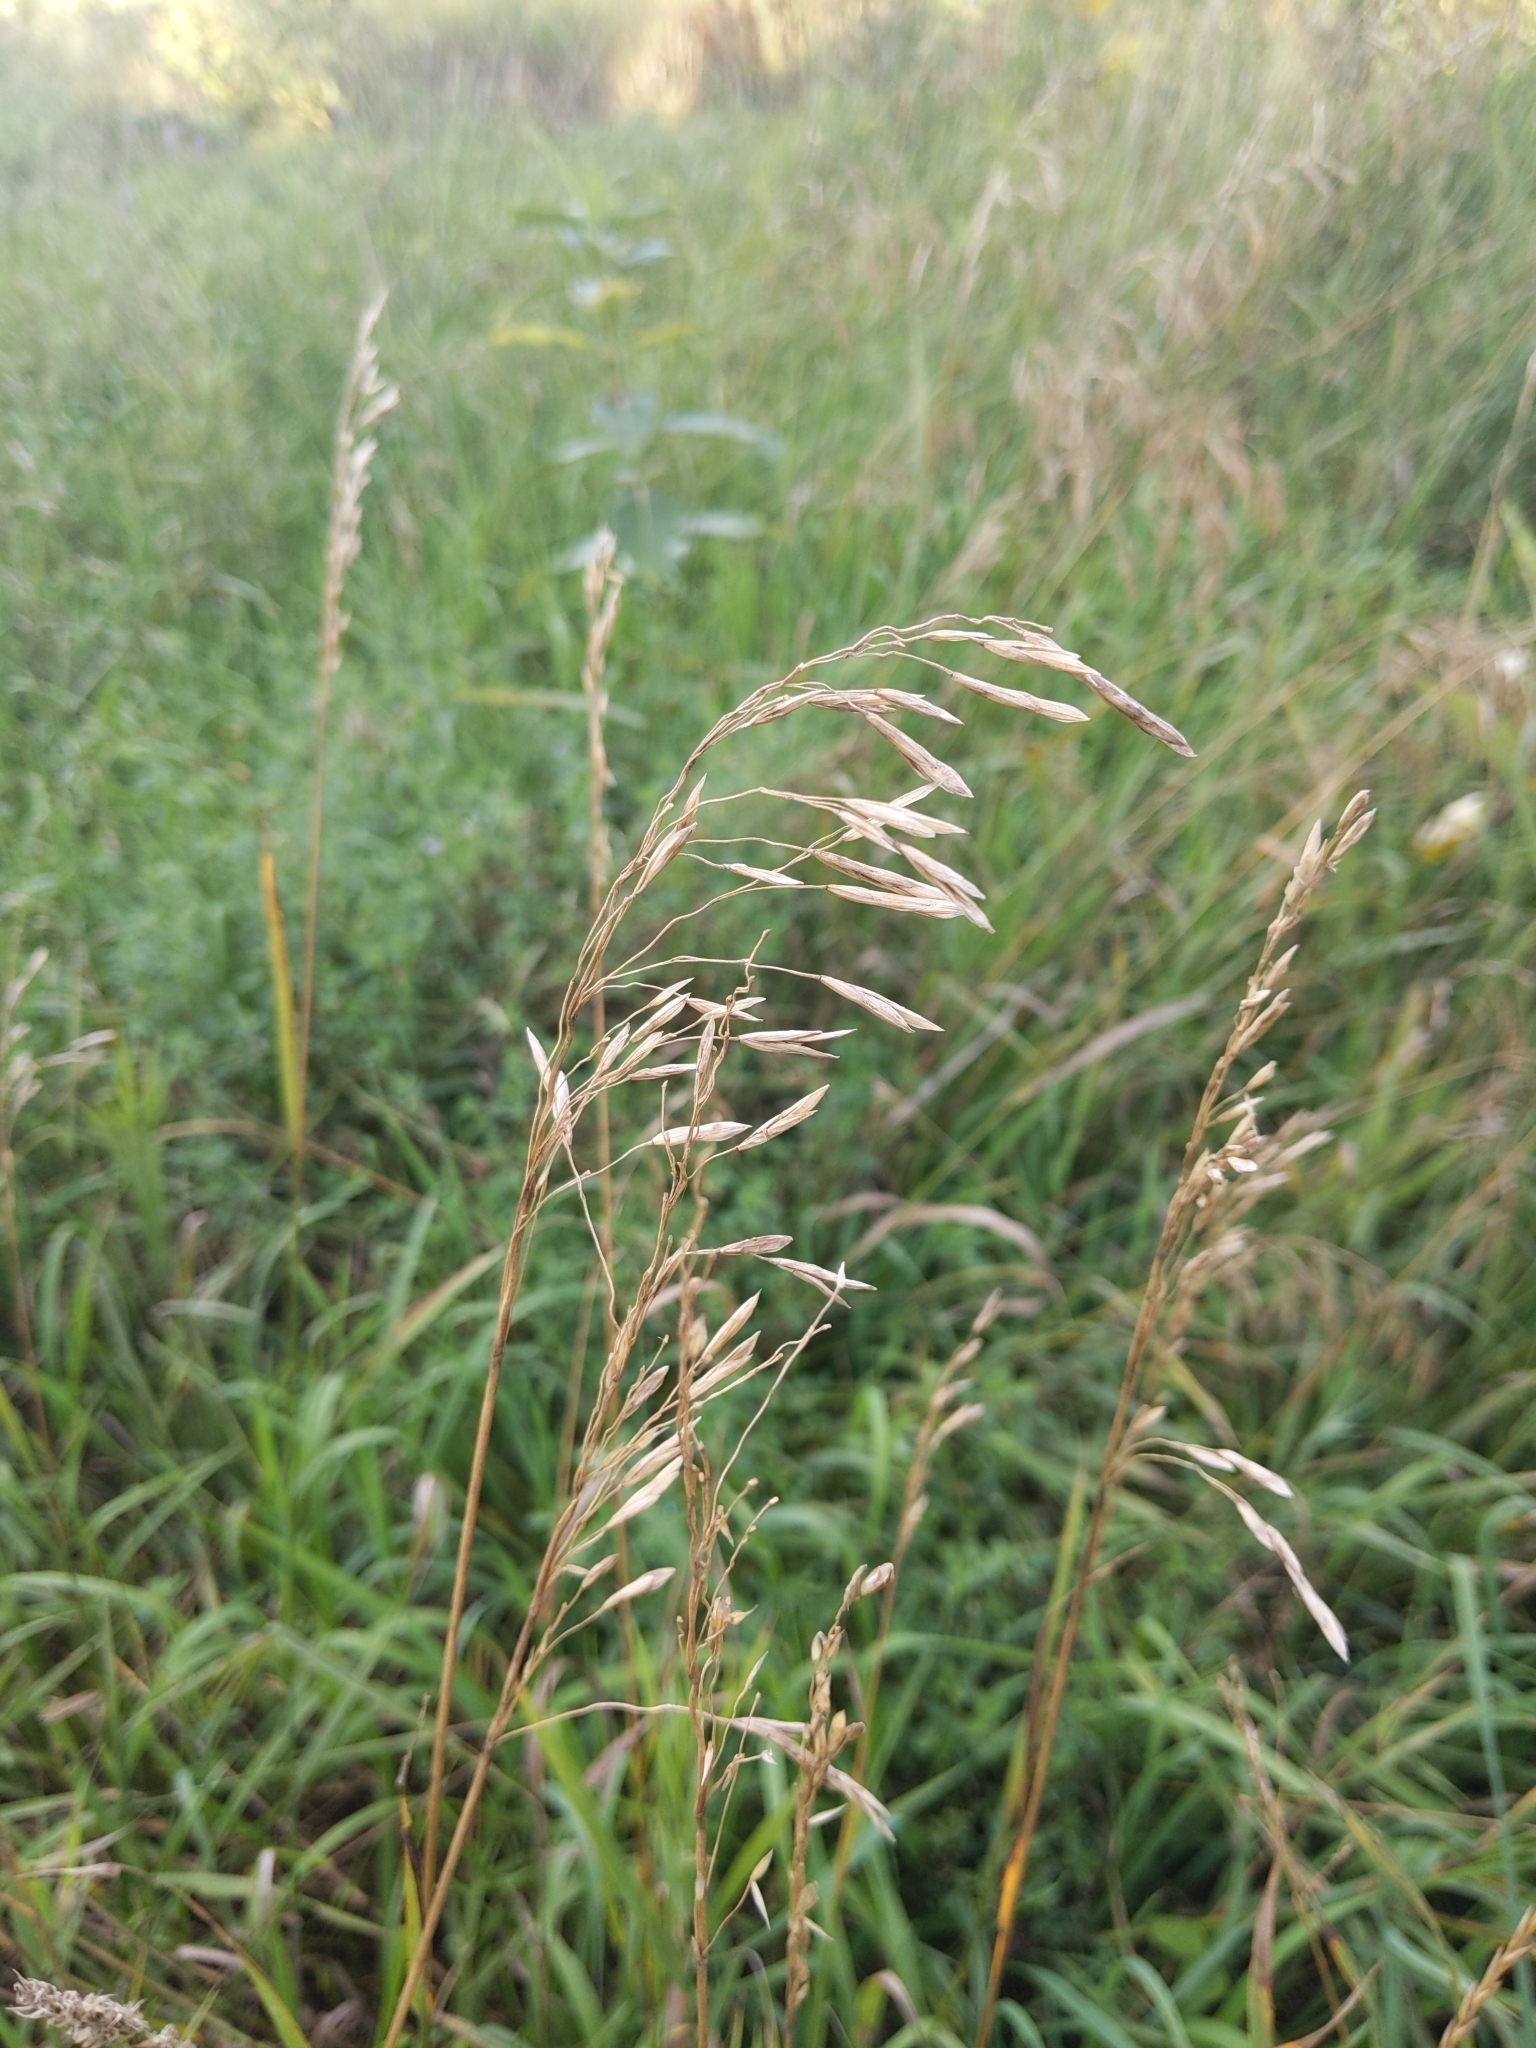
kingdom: Plantae
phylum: Tracheophyta
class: Liliopsida
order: Poales
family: Poaceae
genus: Bromus
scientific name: Bromus inermis
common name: Smooth brome
